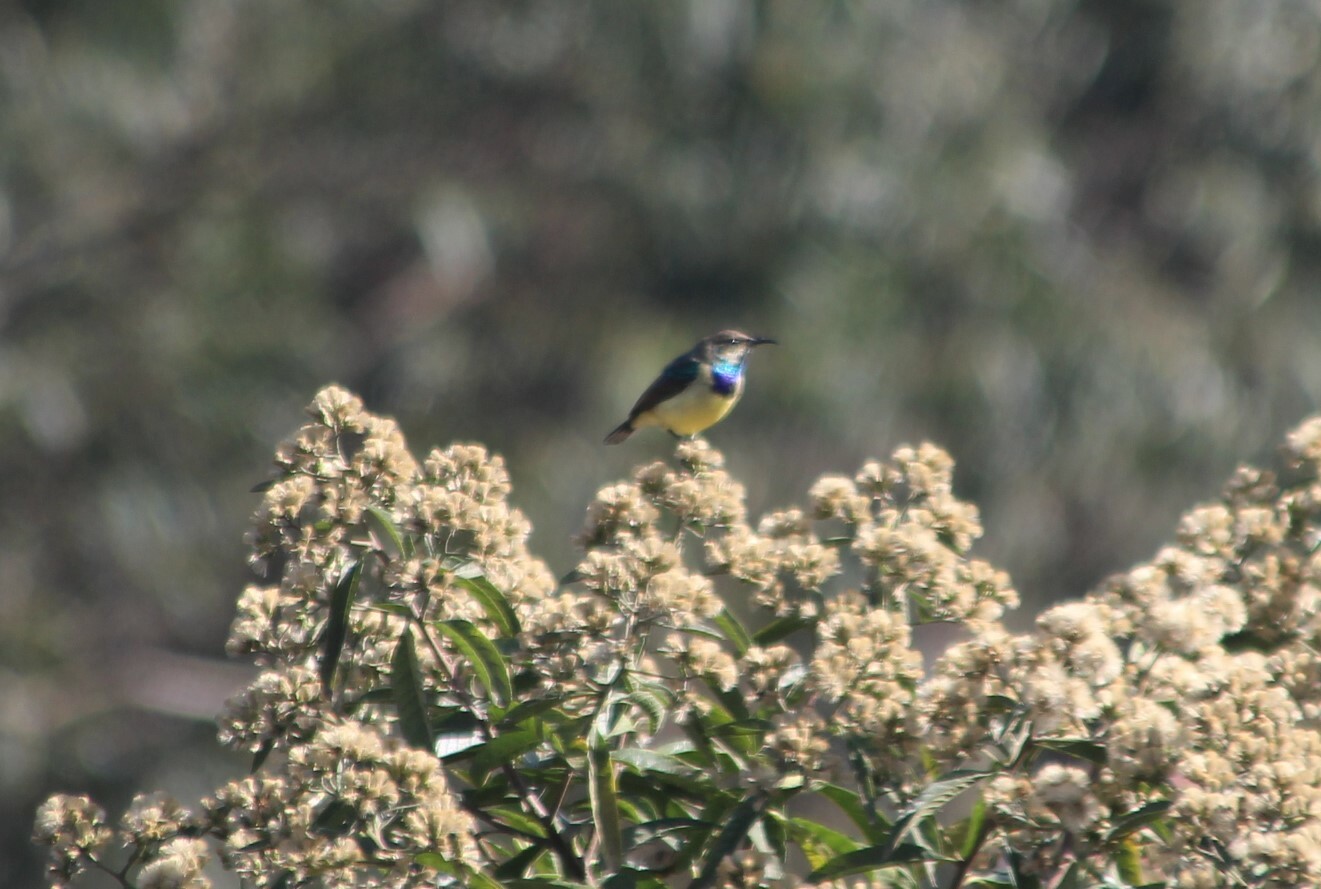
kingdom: Animalia
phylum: Chordata
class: Aves
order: Passeriformes
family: Nectariniidae
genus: Cinnyris
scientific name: Cinnyris venustus
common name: Variable sunbird
